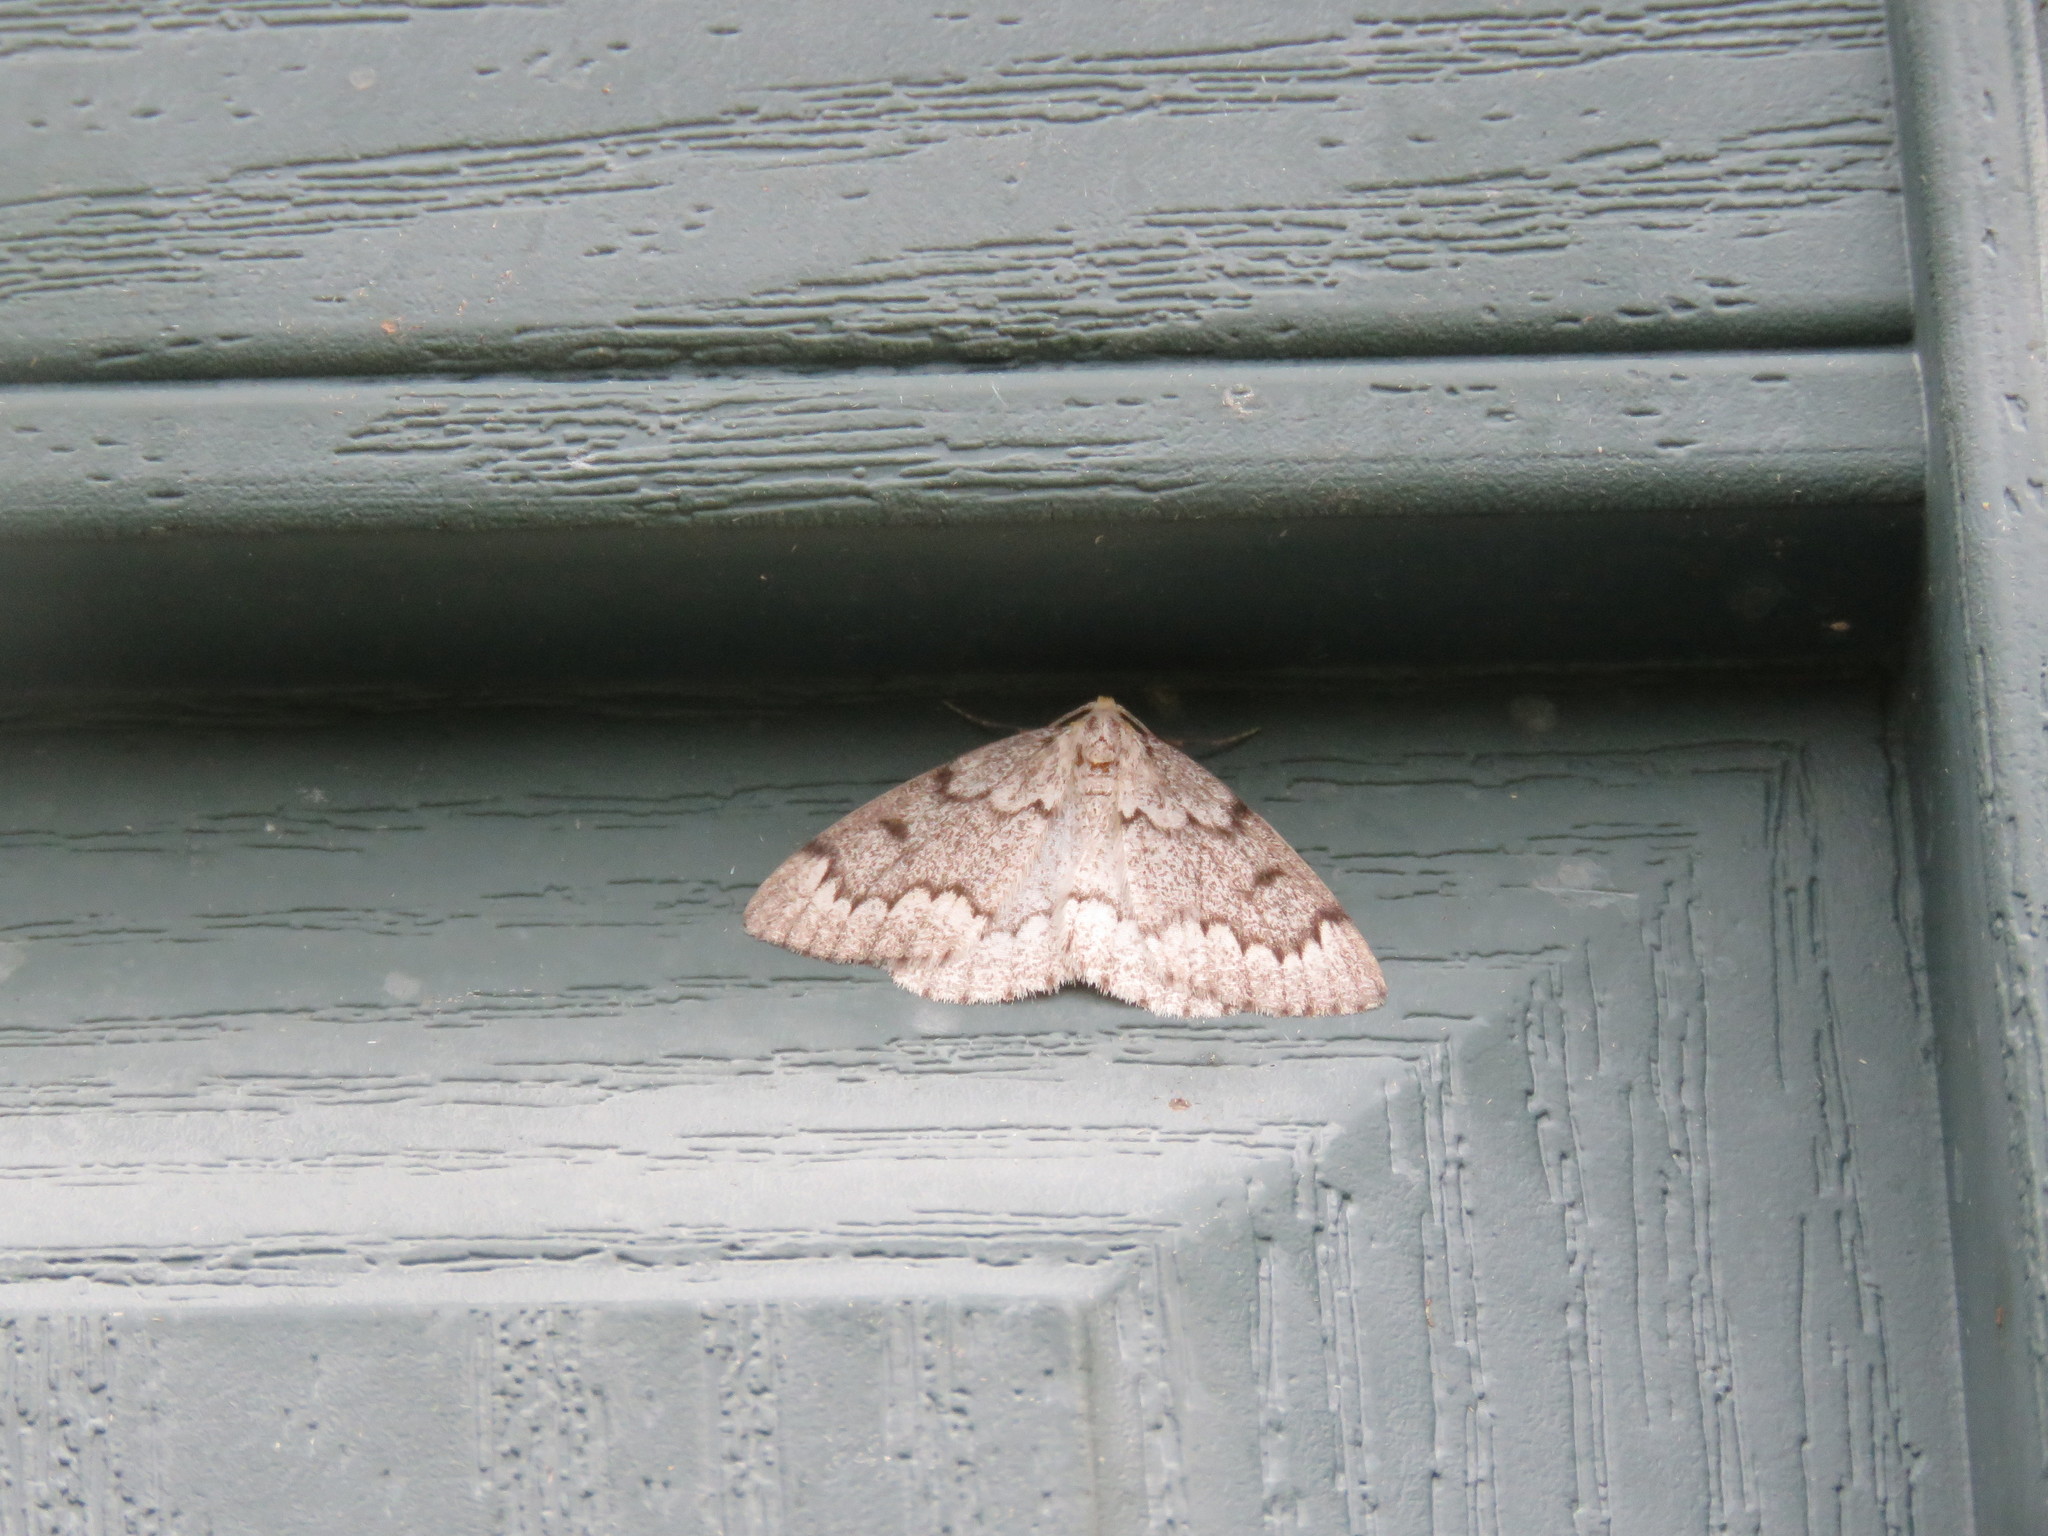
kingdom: Animalia
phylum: Arthropoda
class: Insecta
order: Lepidoptera
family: Geometridae
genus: Nepytia
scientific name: Nepytia canosaria
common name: False hemlock looper
